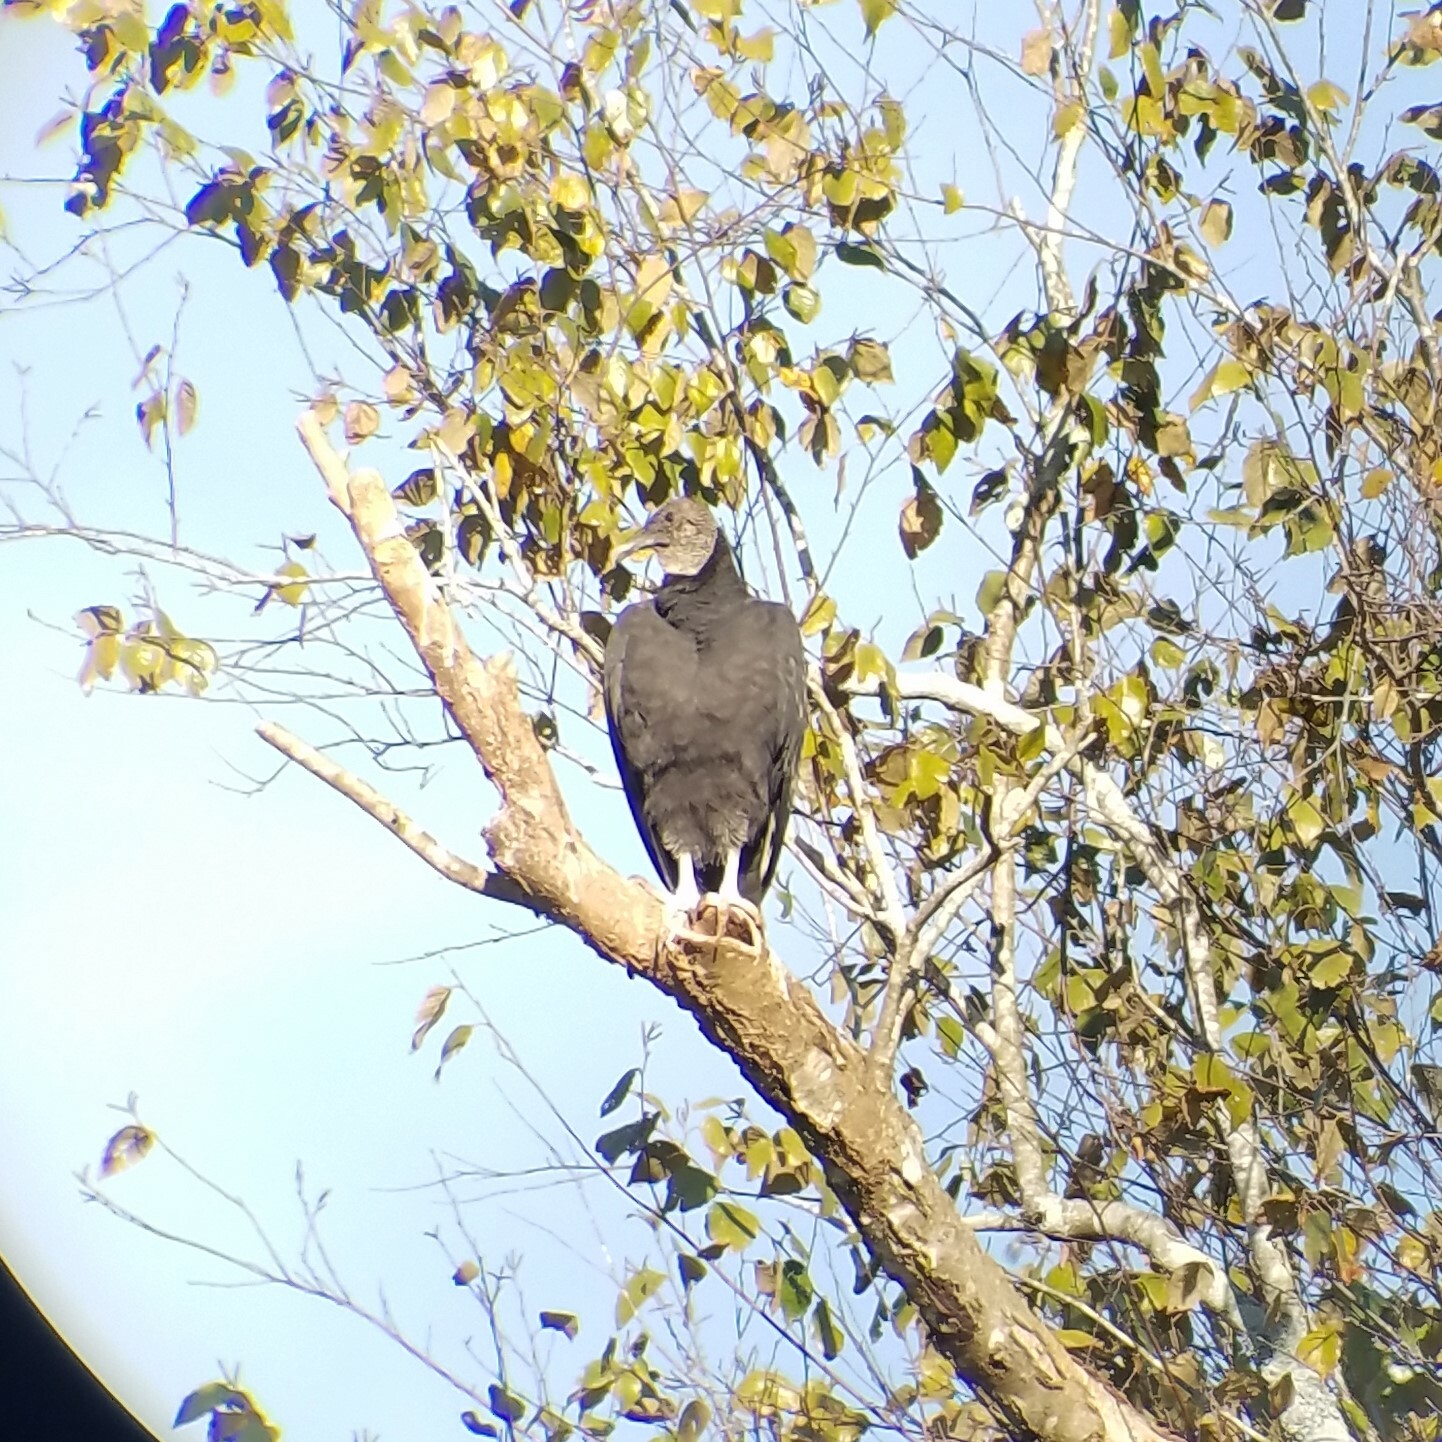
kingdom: Animalia
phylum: Chordata
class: Aves
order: Accipitriformes
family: Cathartidae
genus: Coragyps
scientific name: Coragyps atratus
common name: Black vulture
